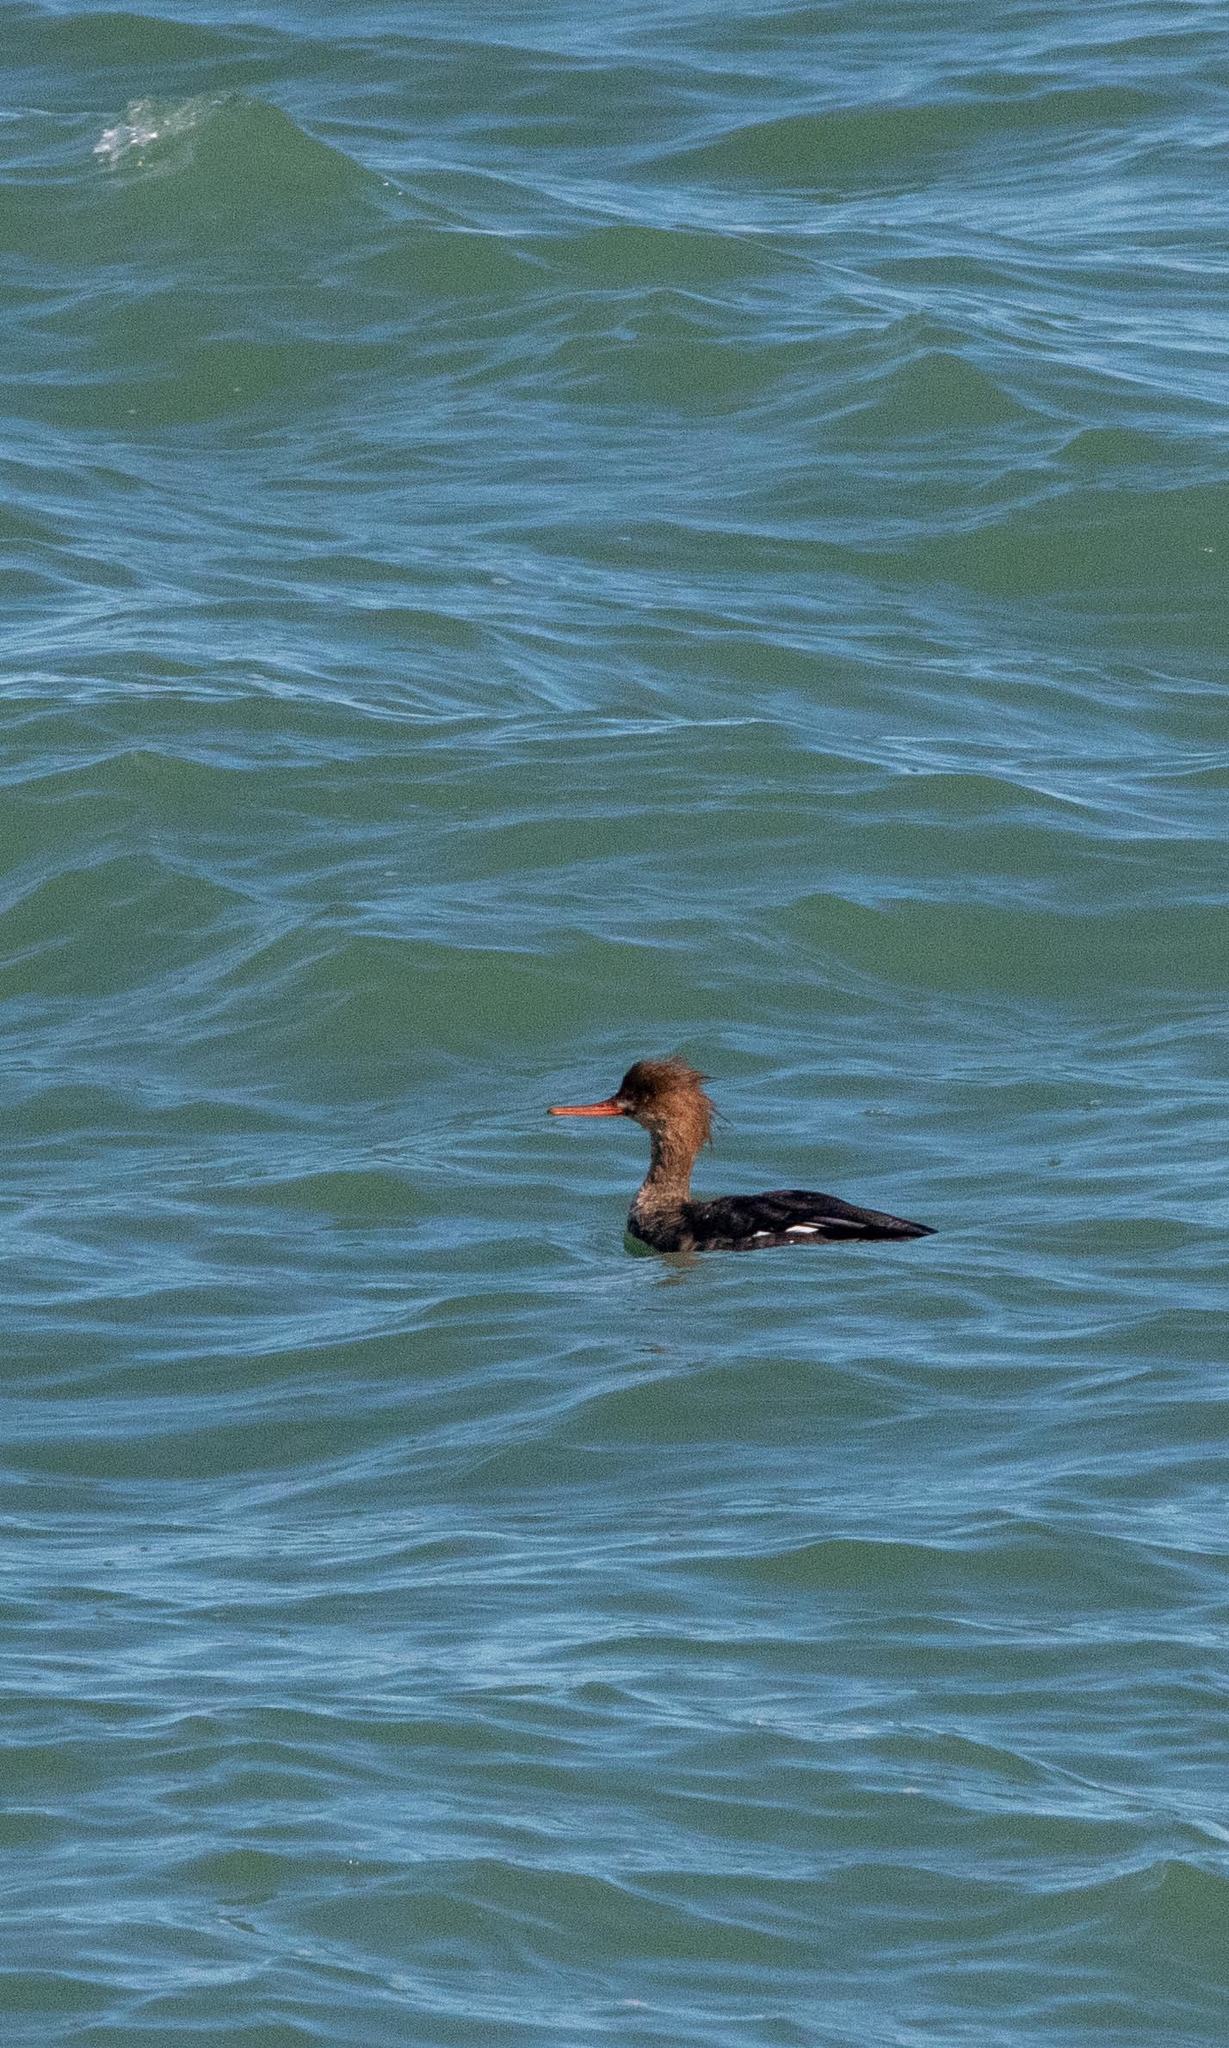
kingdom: Animalia
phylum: Chordata
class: Aves
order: Anseriformes
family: Anatidae
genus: Mergus
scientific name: Mergus serrator
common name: Red-breasted merganser
